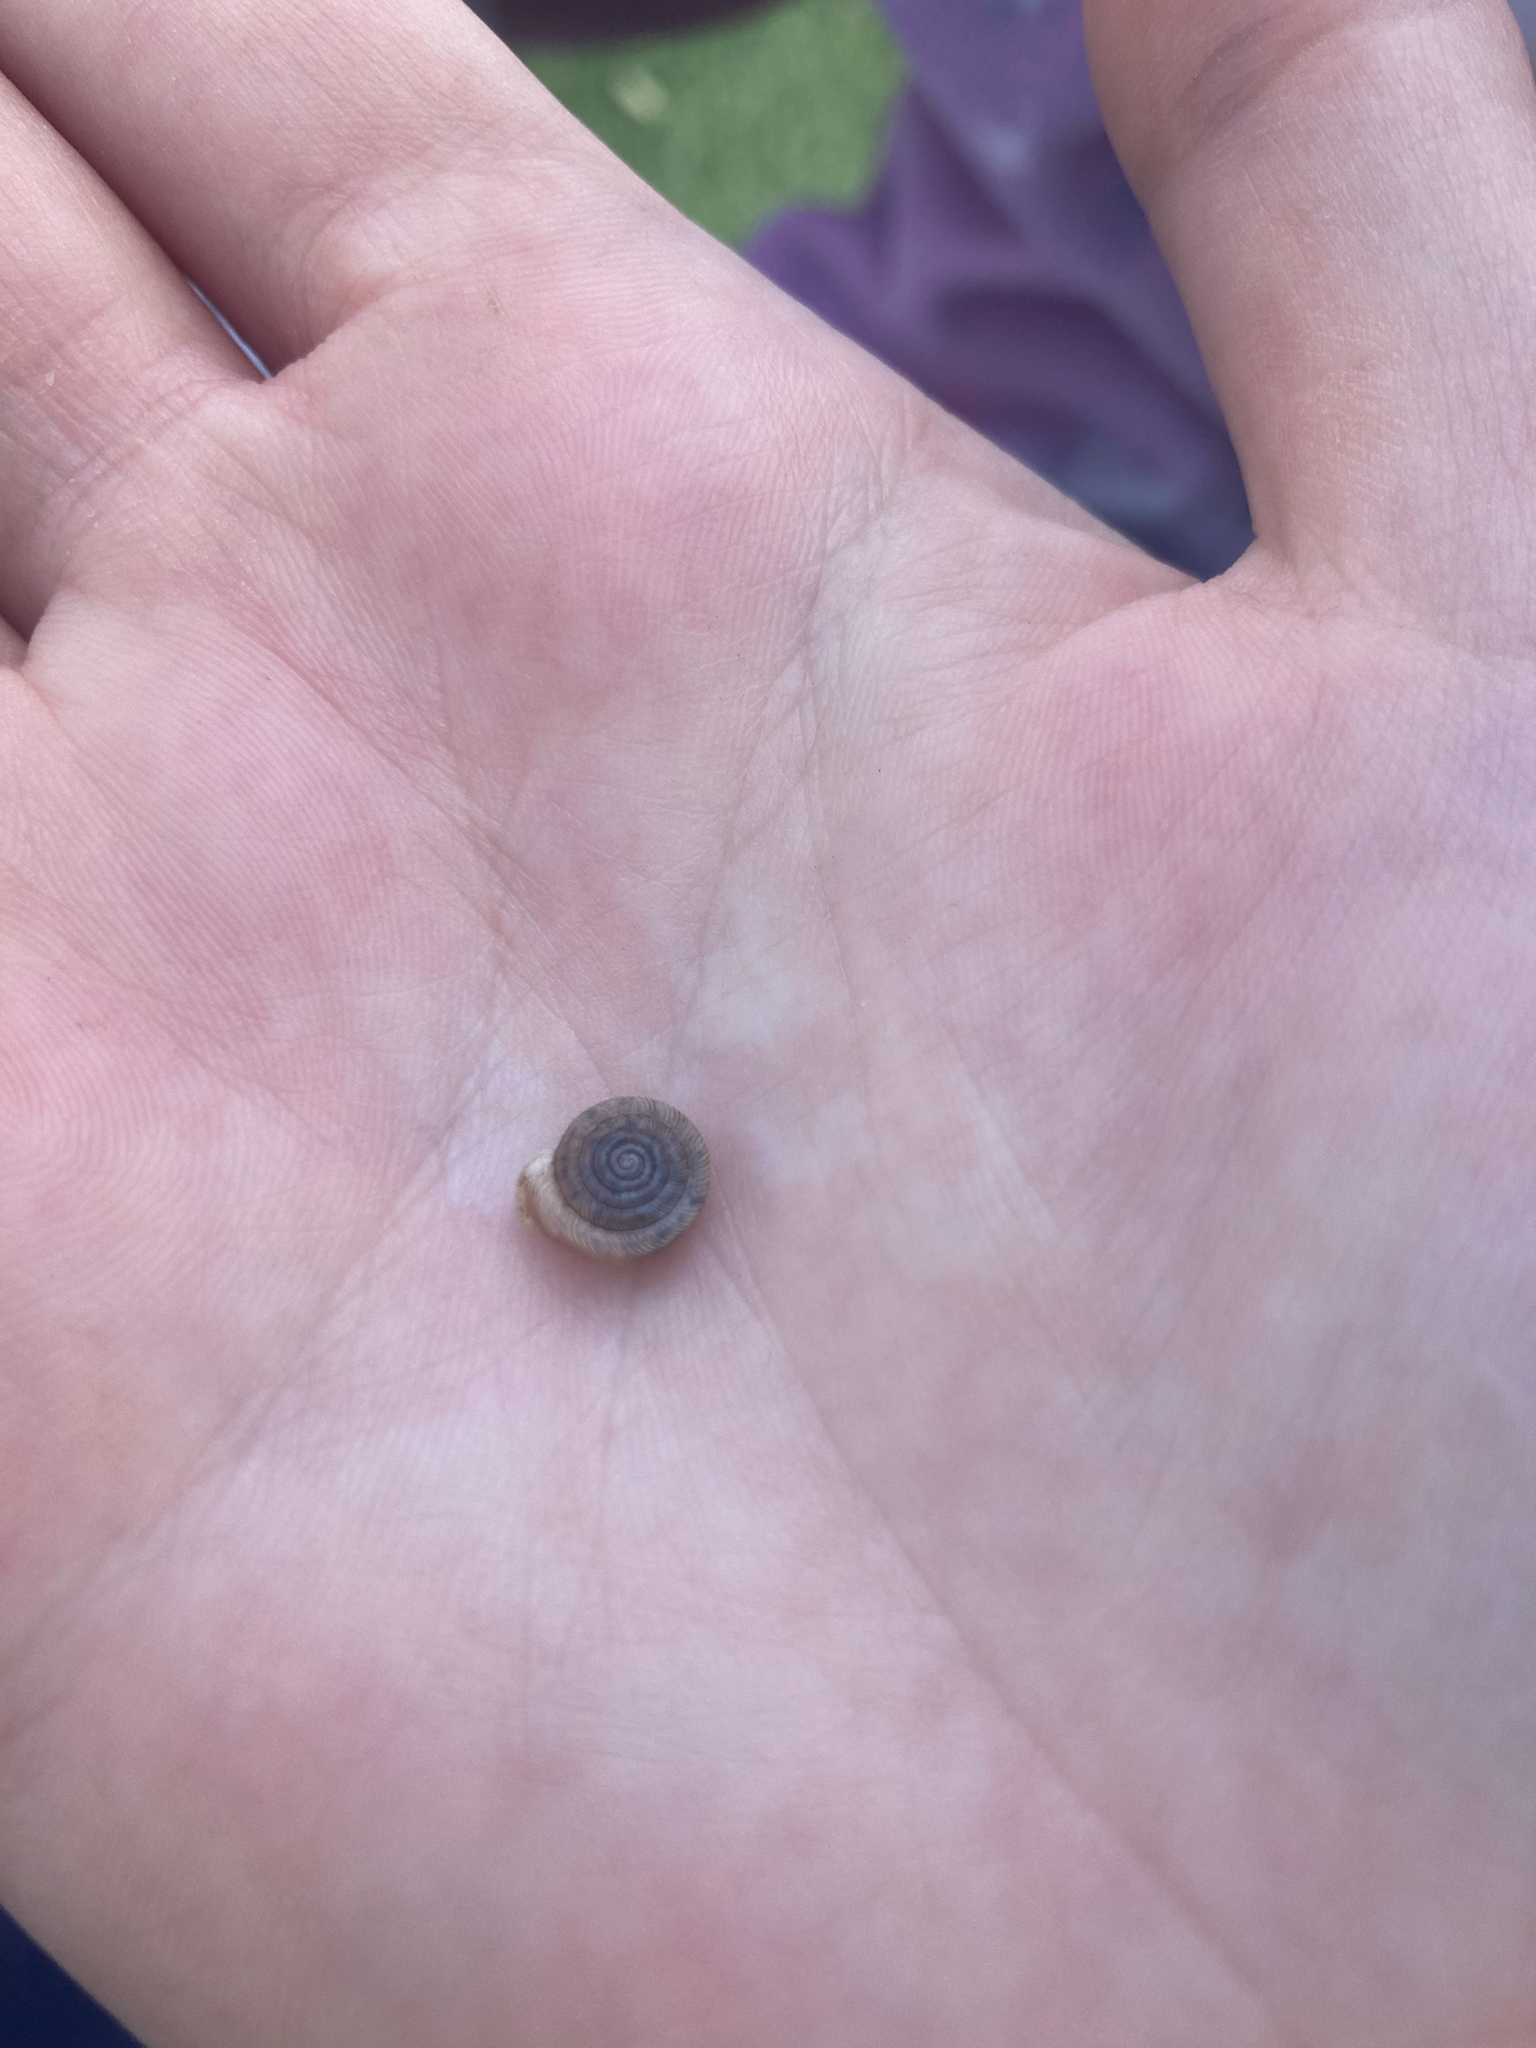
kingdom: Animalia
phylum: Mollusca
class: Gastropoda
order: Stylommatophora
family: Polygyridae
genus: Polygyra
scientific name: Polygyra cereolus
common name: Southern flatcone snail
